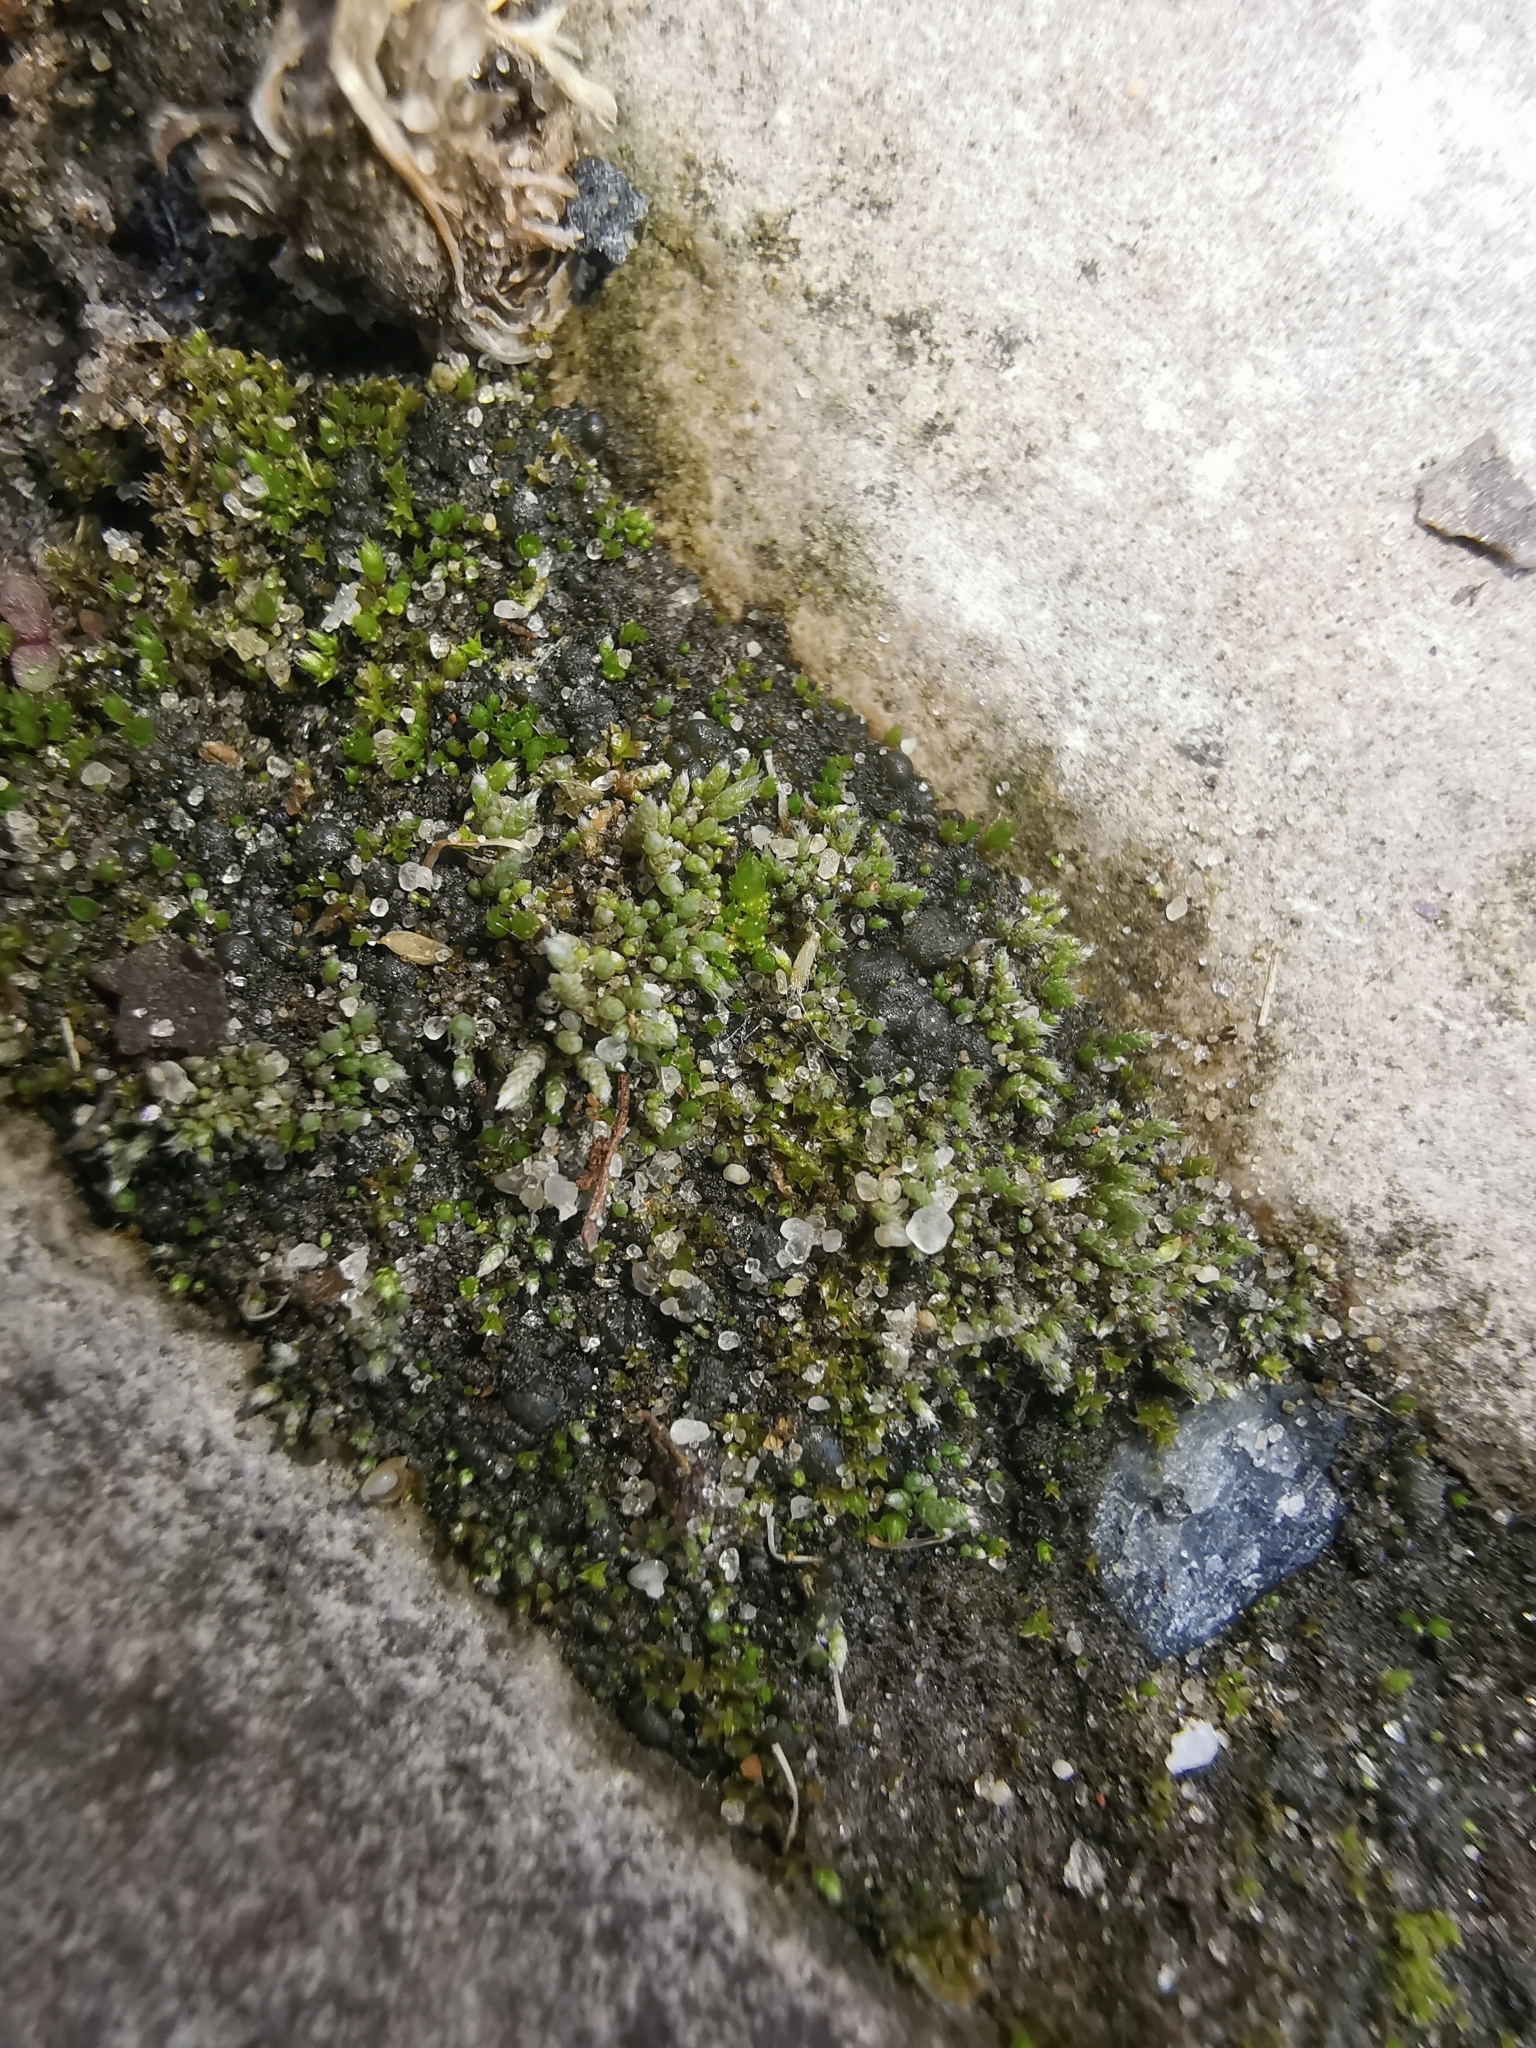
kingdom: Plantae
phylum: Bryophyta
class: Bryopsida
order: Bryales
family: Bryaceae
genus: Bryum
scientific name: Bryum argenteum
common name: Silver-moss
